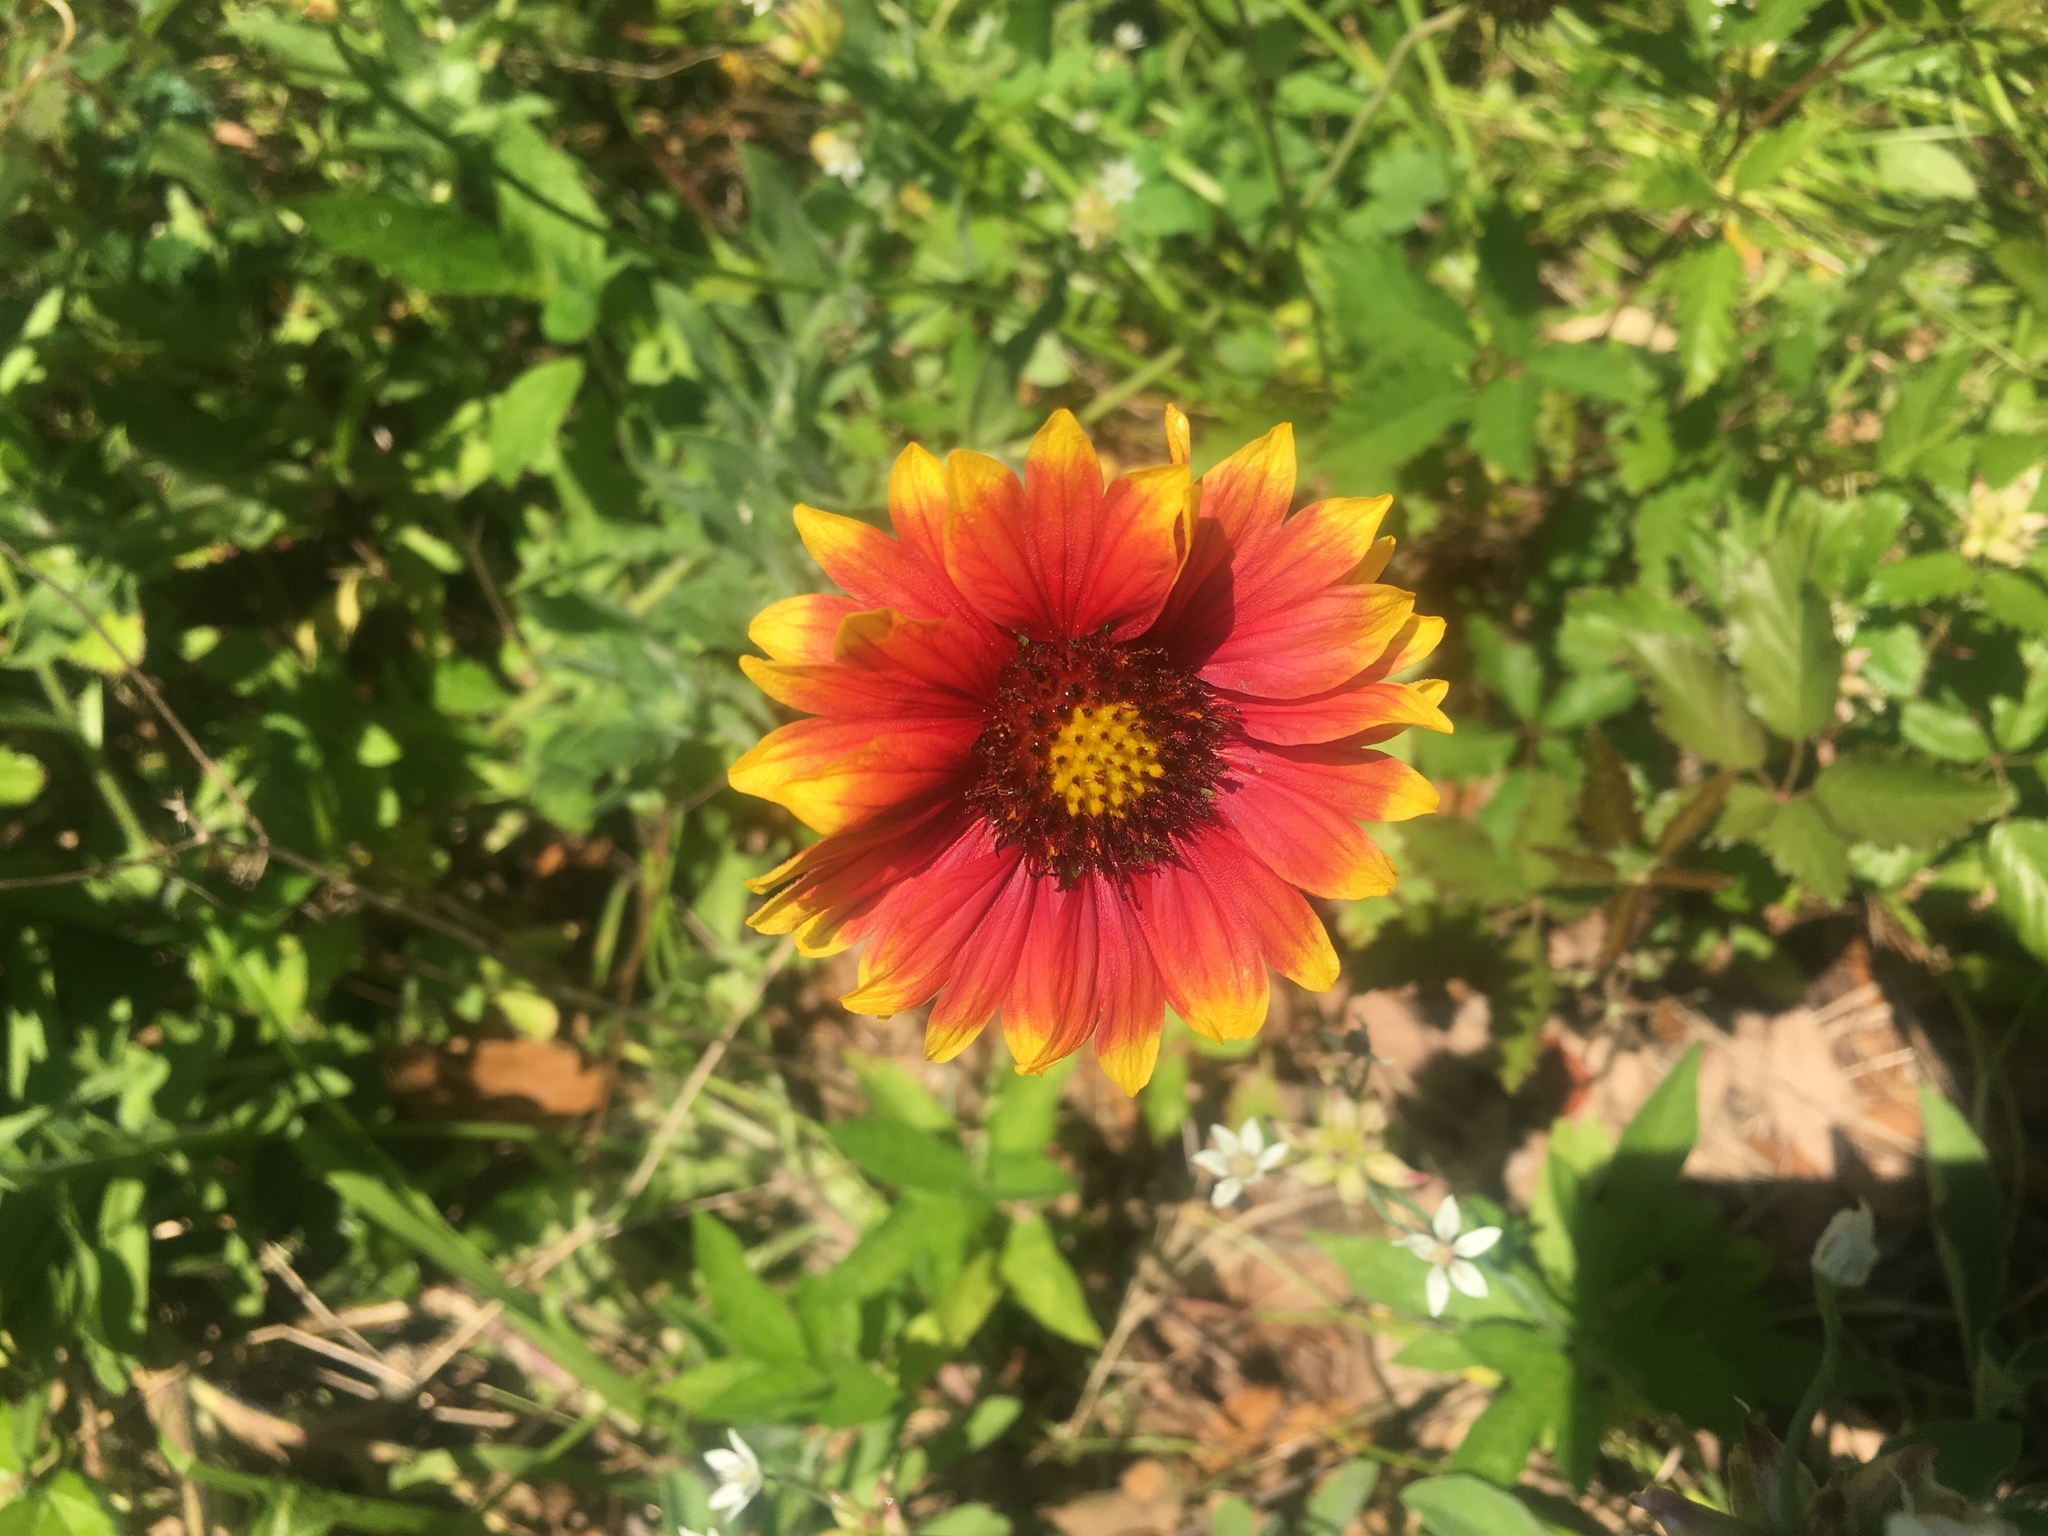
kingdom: Plantae
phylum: Tracheophyta
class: Magnoliopsida
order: Asterales
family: Asteraceae
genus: Gaillardia
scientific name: Gaillardia pulchella
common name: Firewheel
